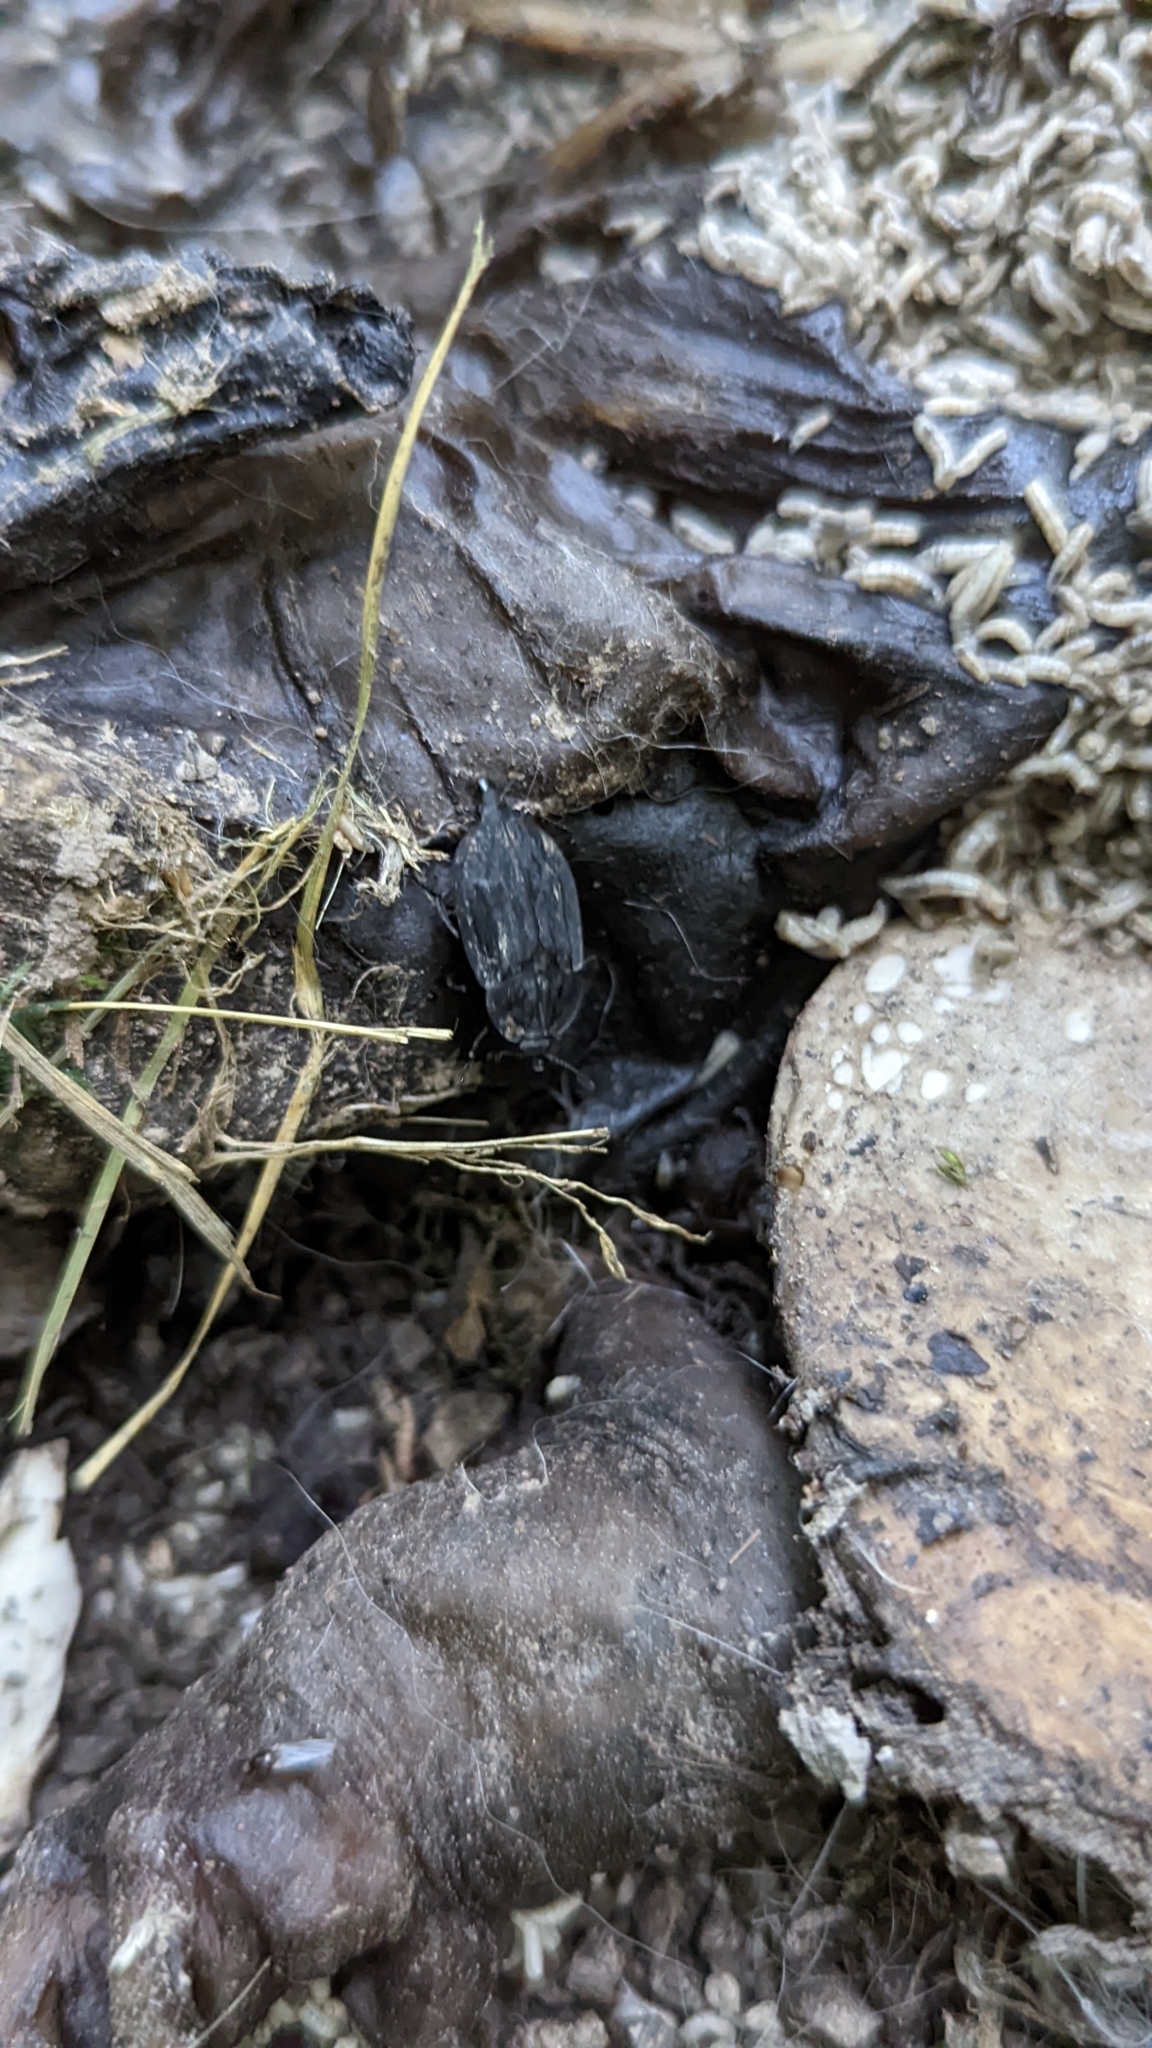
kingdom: Animalia
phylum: Arthropoda
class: Insecta
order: Coleoptera
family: Staphylinidae
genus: Oiceoptoma
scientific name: Oiceoptoma inaequale
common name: Ridged carrion beetle
